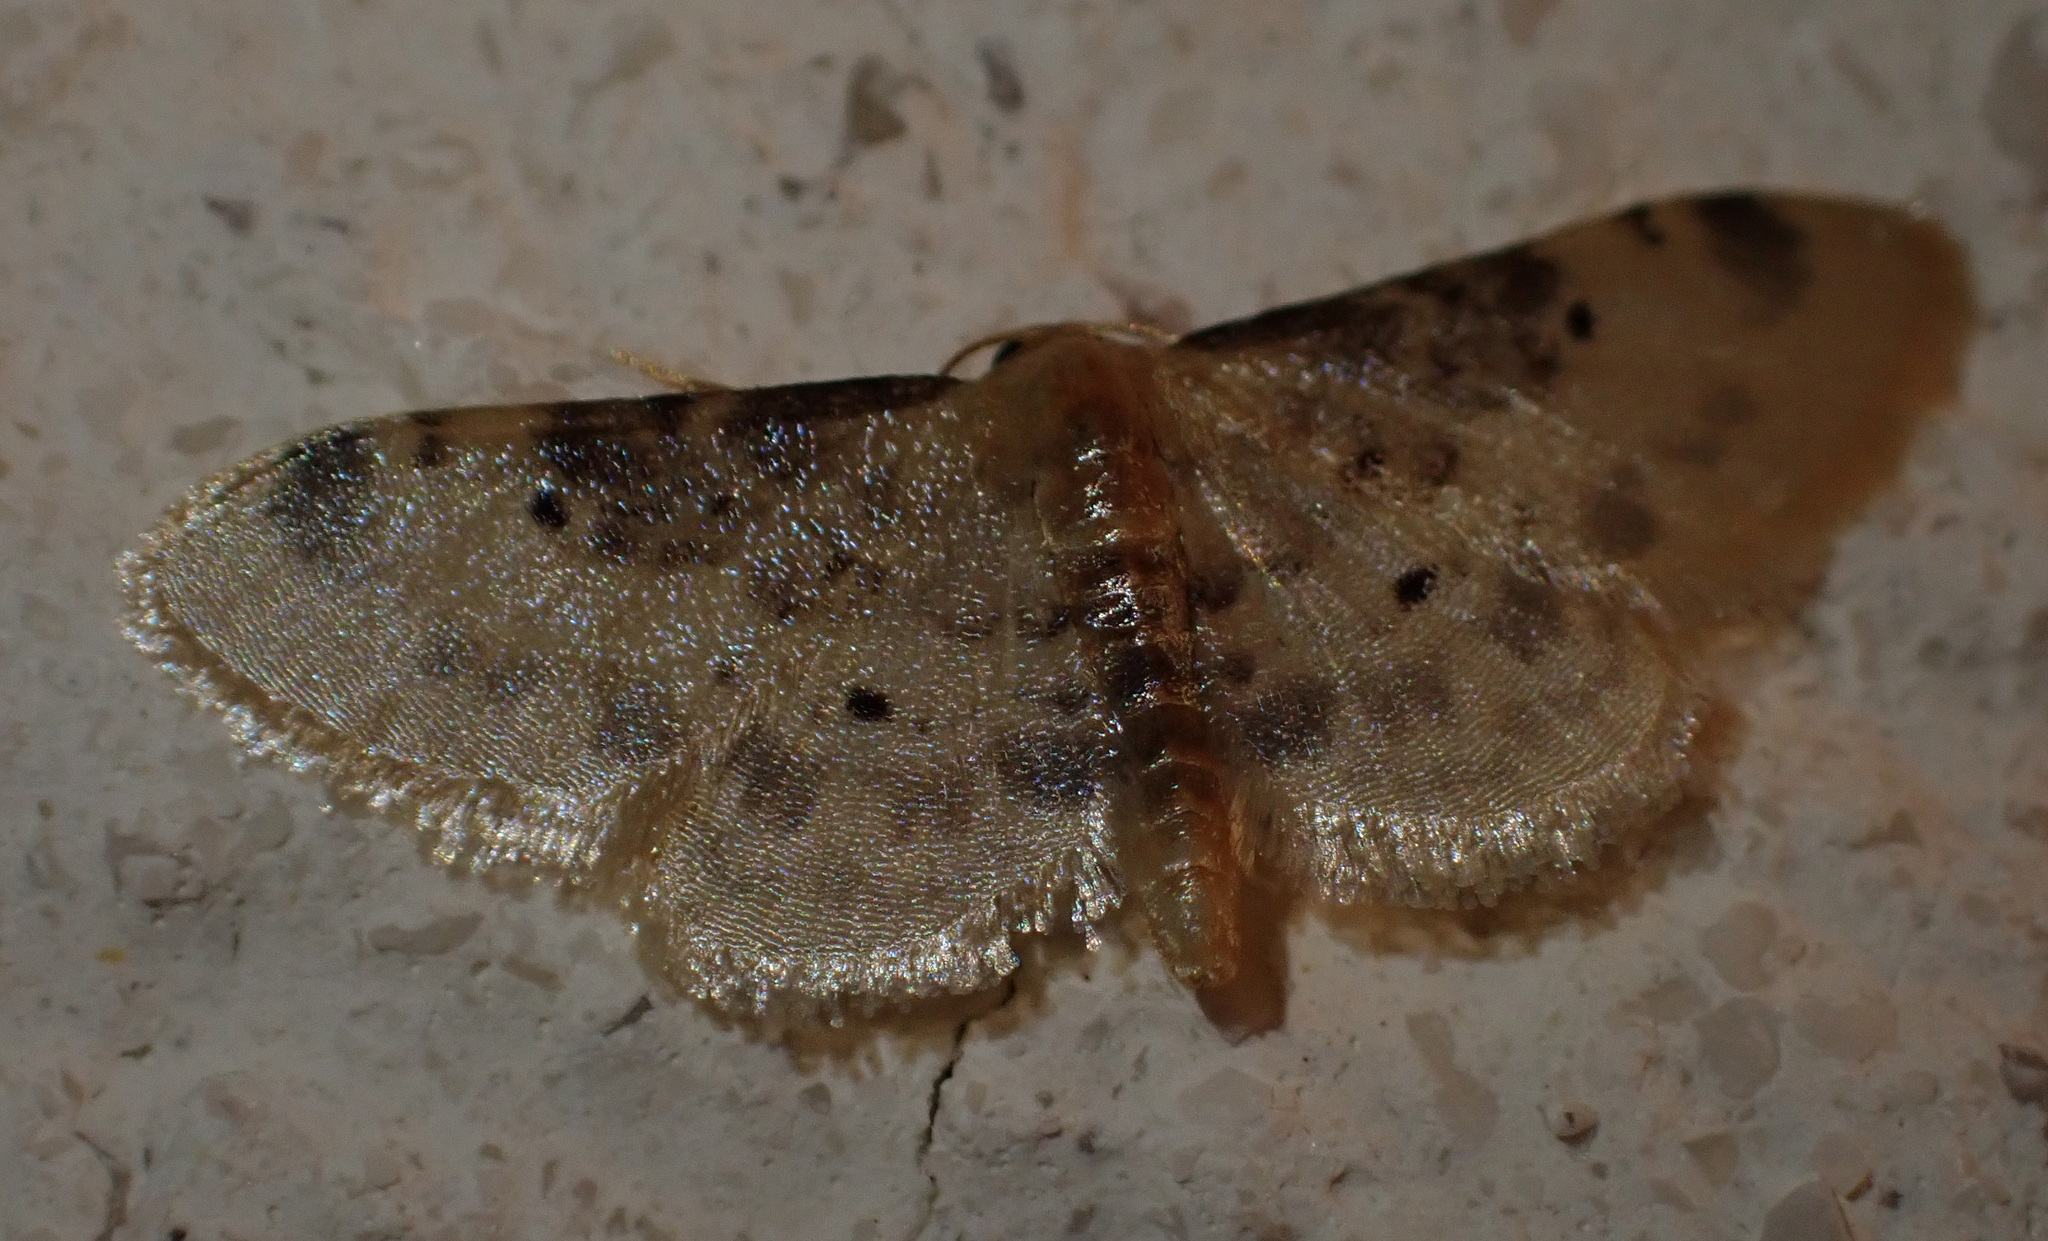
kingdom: Animalia
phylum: Arthropoda
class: Insecta
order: Lepidoptera
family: Geometridae
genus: Idaea
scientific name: Idaea filicata
